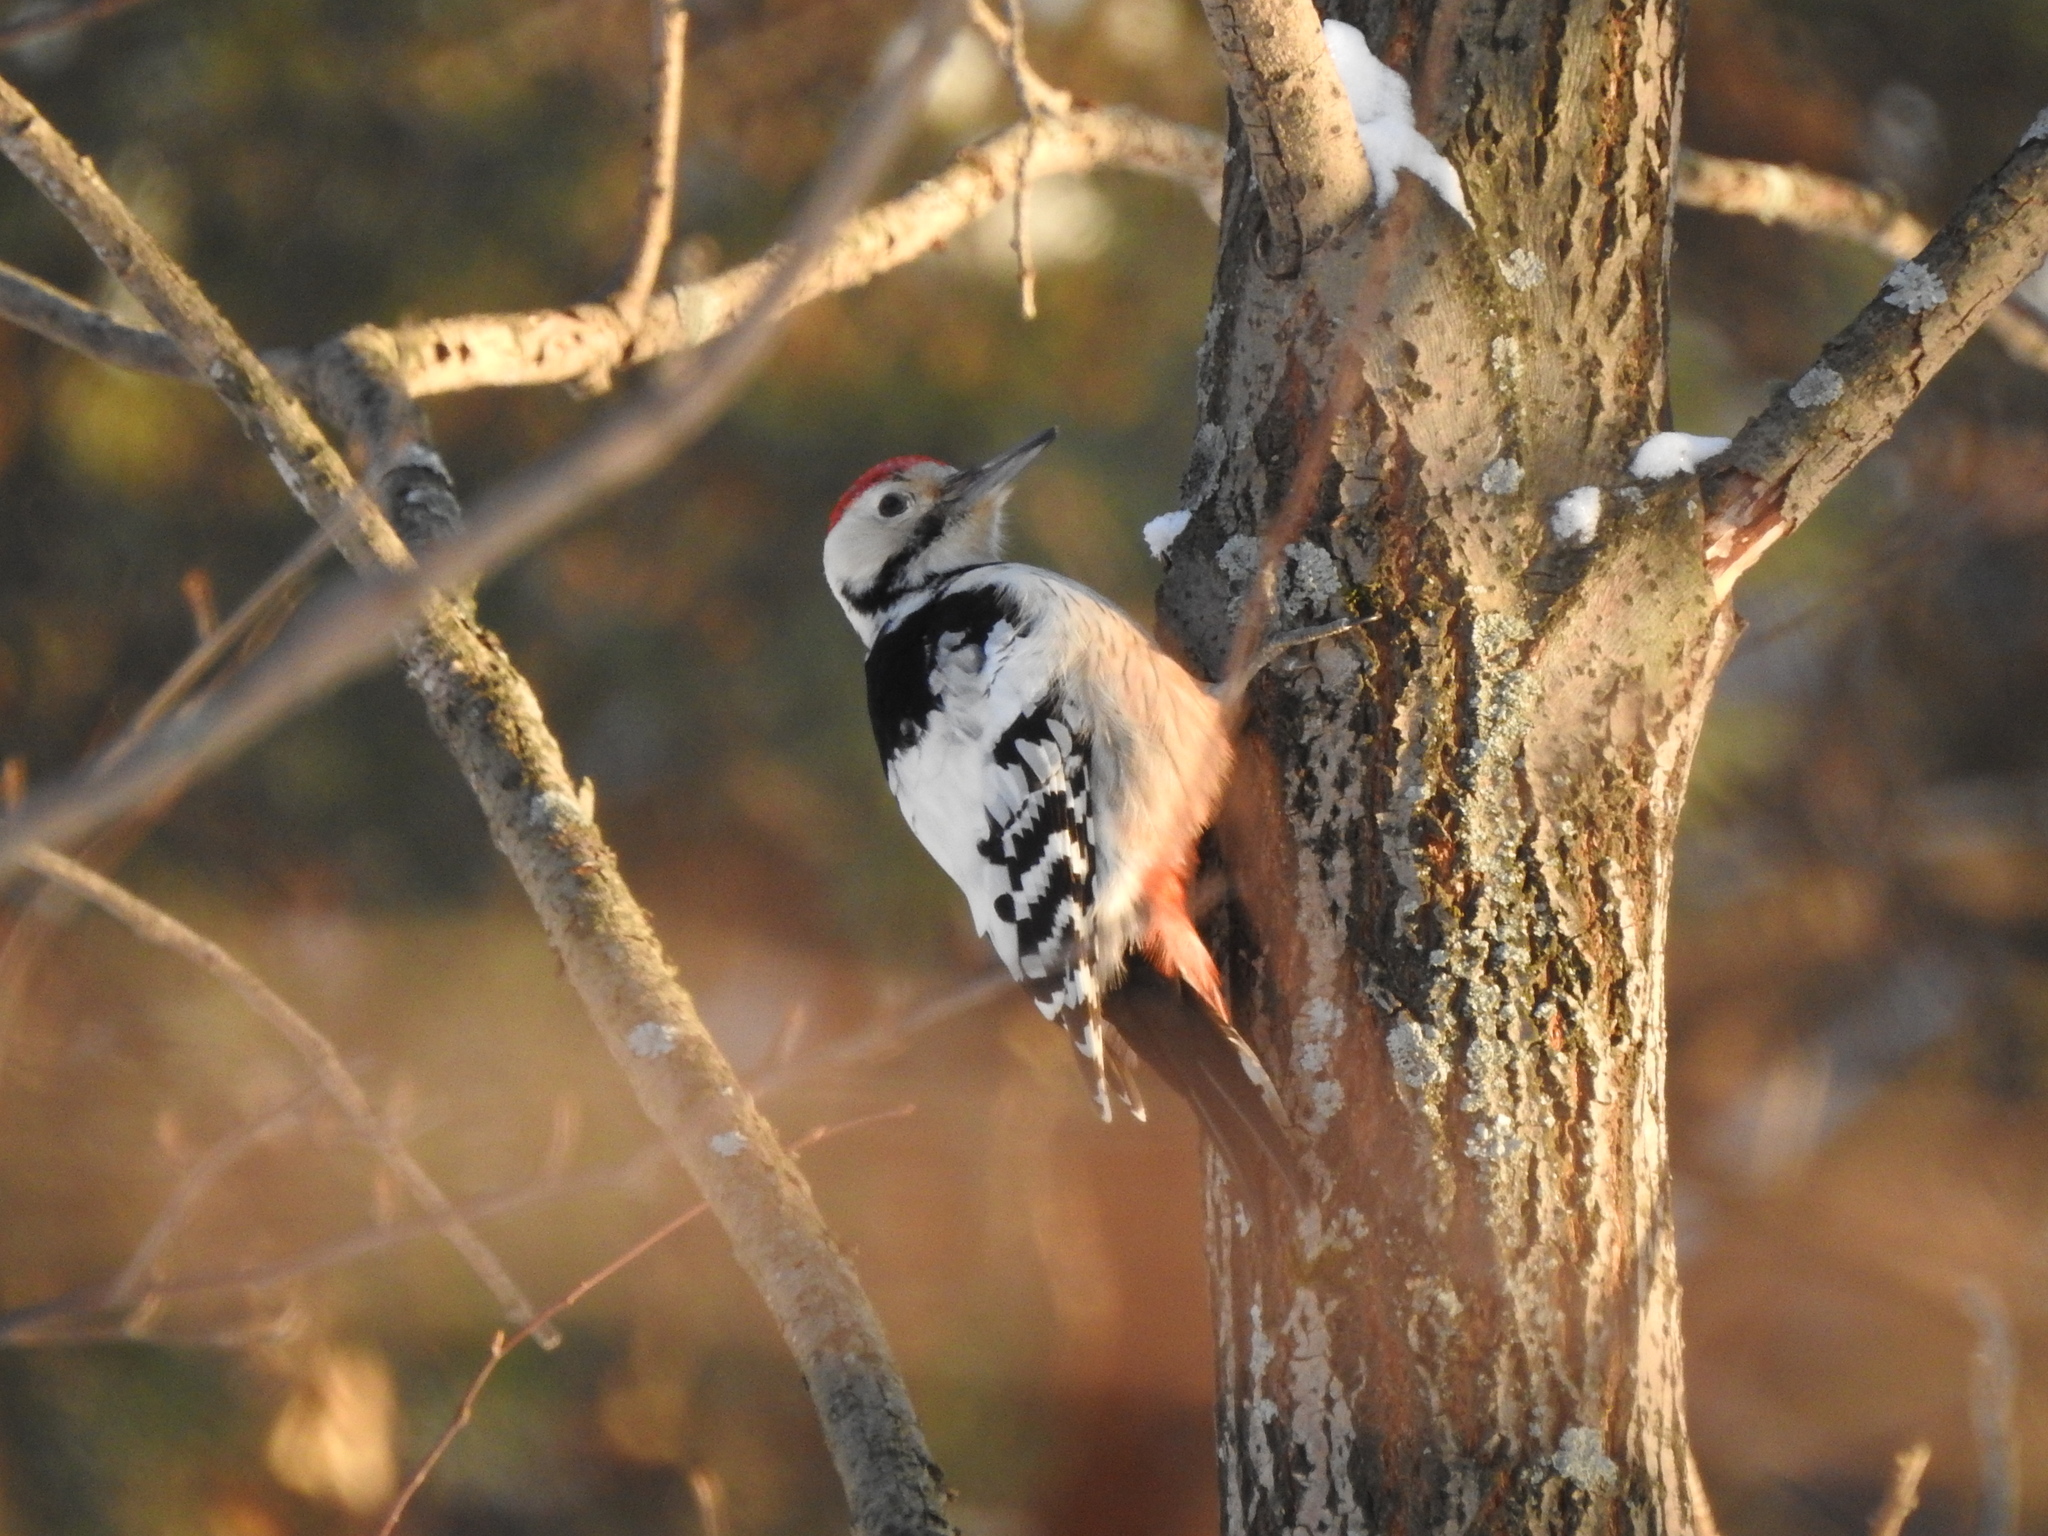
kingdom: Animalia
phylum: Chordata
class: Aves
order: Piciformes
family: Picidae
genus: Dendrocopos
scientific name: Dendrocopos leucotos
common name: White-backed woodpecker
